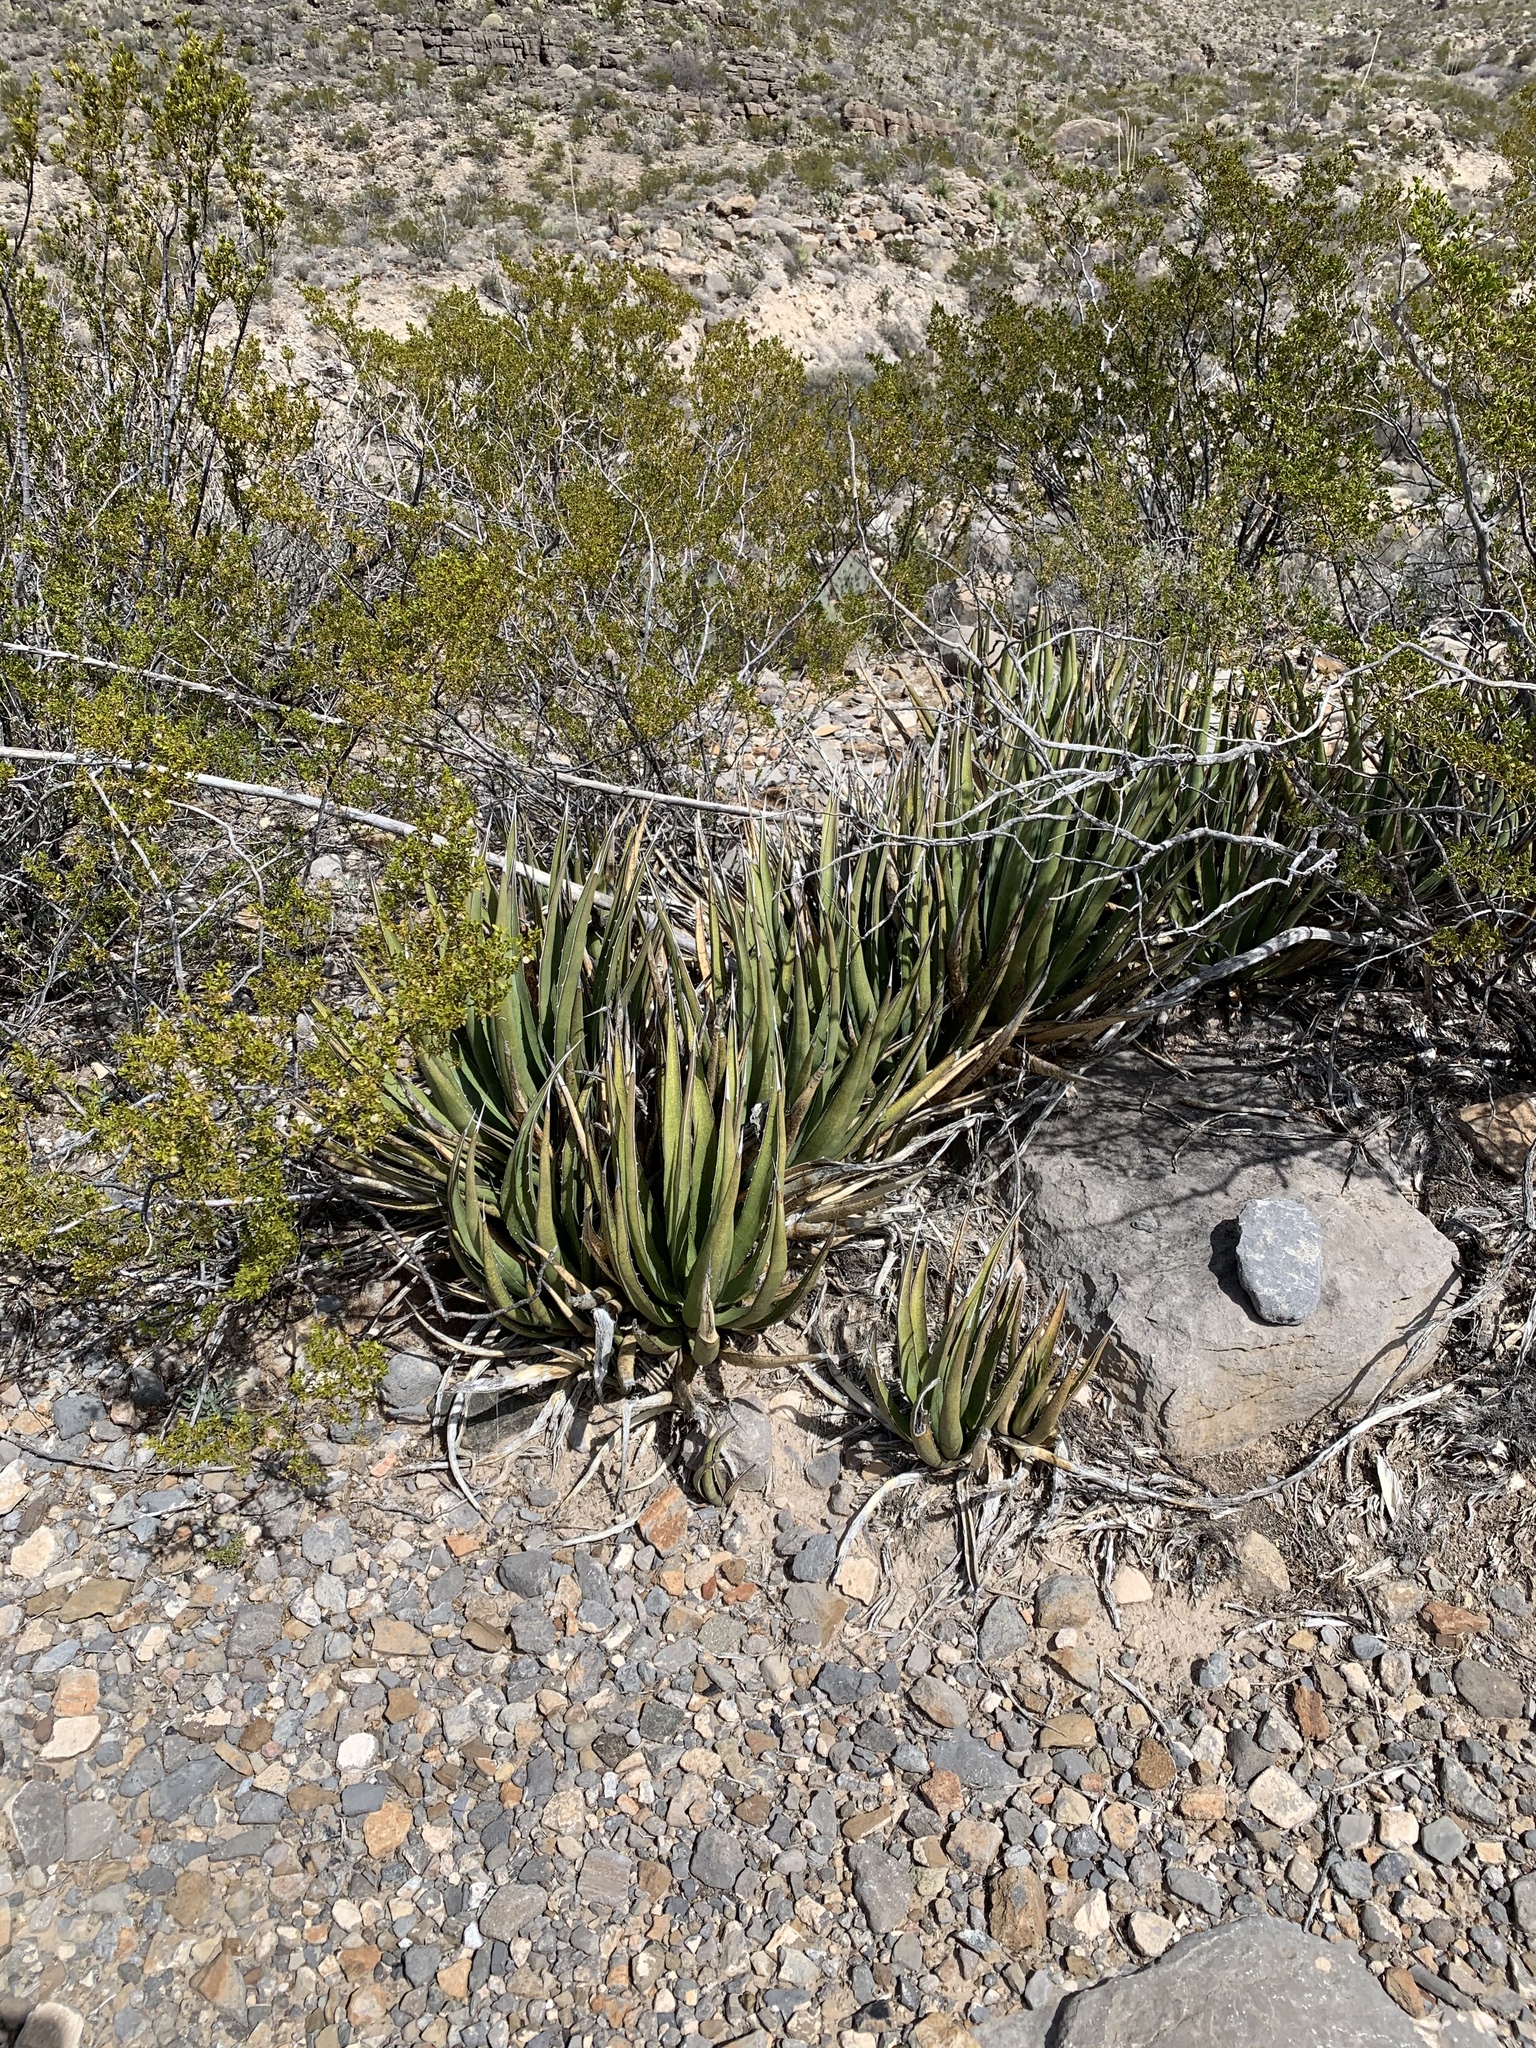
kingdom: Plantae
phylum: Tracheophyta
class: Liliopsida
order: Asparagales
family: Asparagaceae
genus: Agave
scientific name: Agave lechuguilla
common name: Lecheguilla agave
